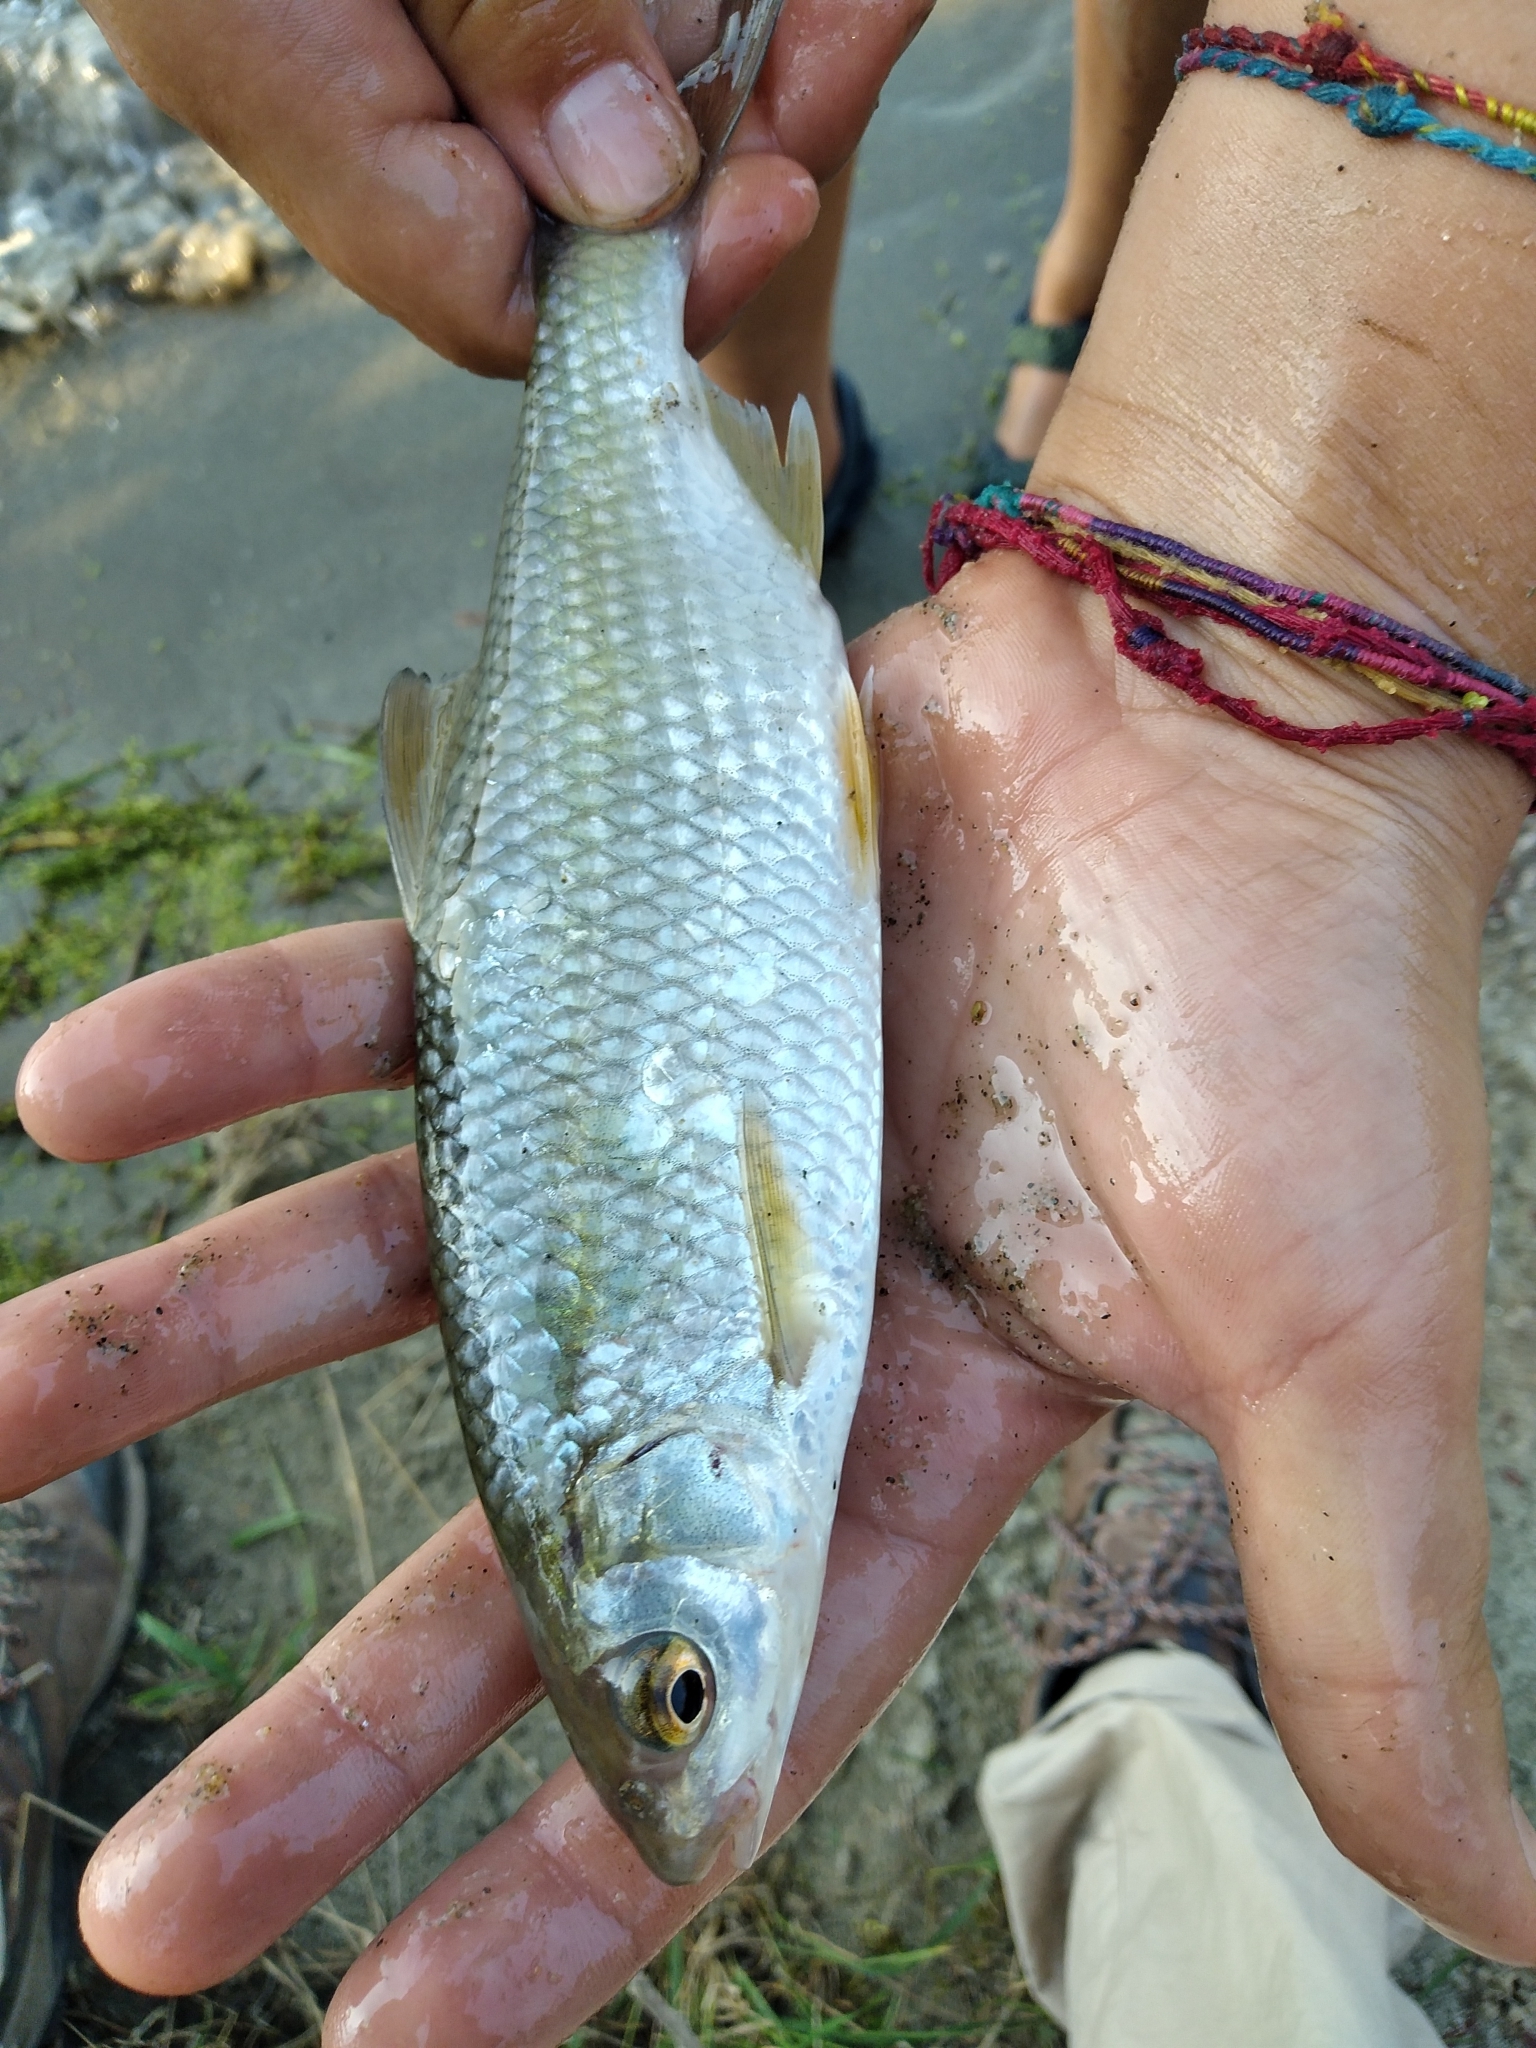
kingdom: Animalia
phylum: Chordata
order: Cypriniformes
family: Cyprinidae
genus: Rutilus
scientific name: Rutilus rutilus
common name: Roach
